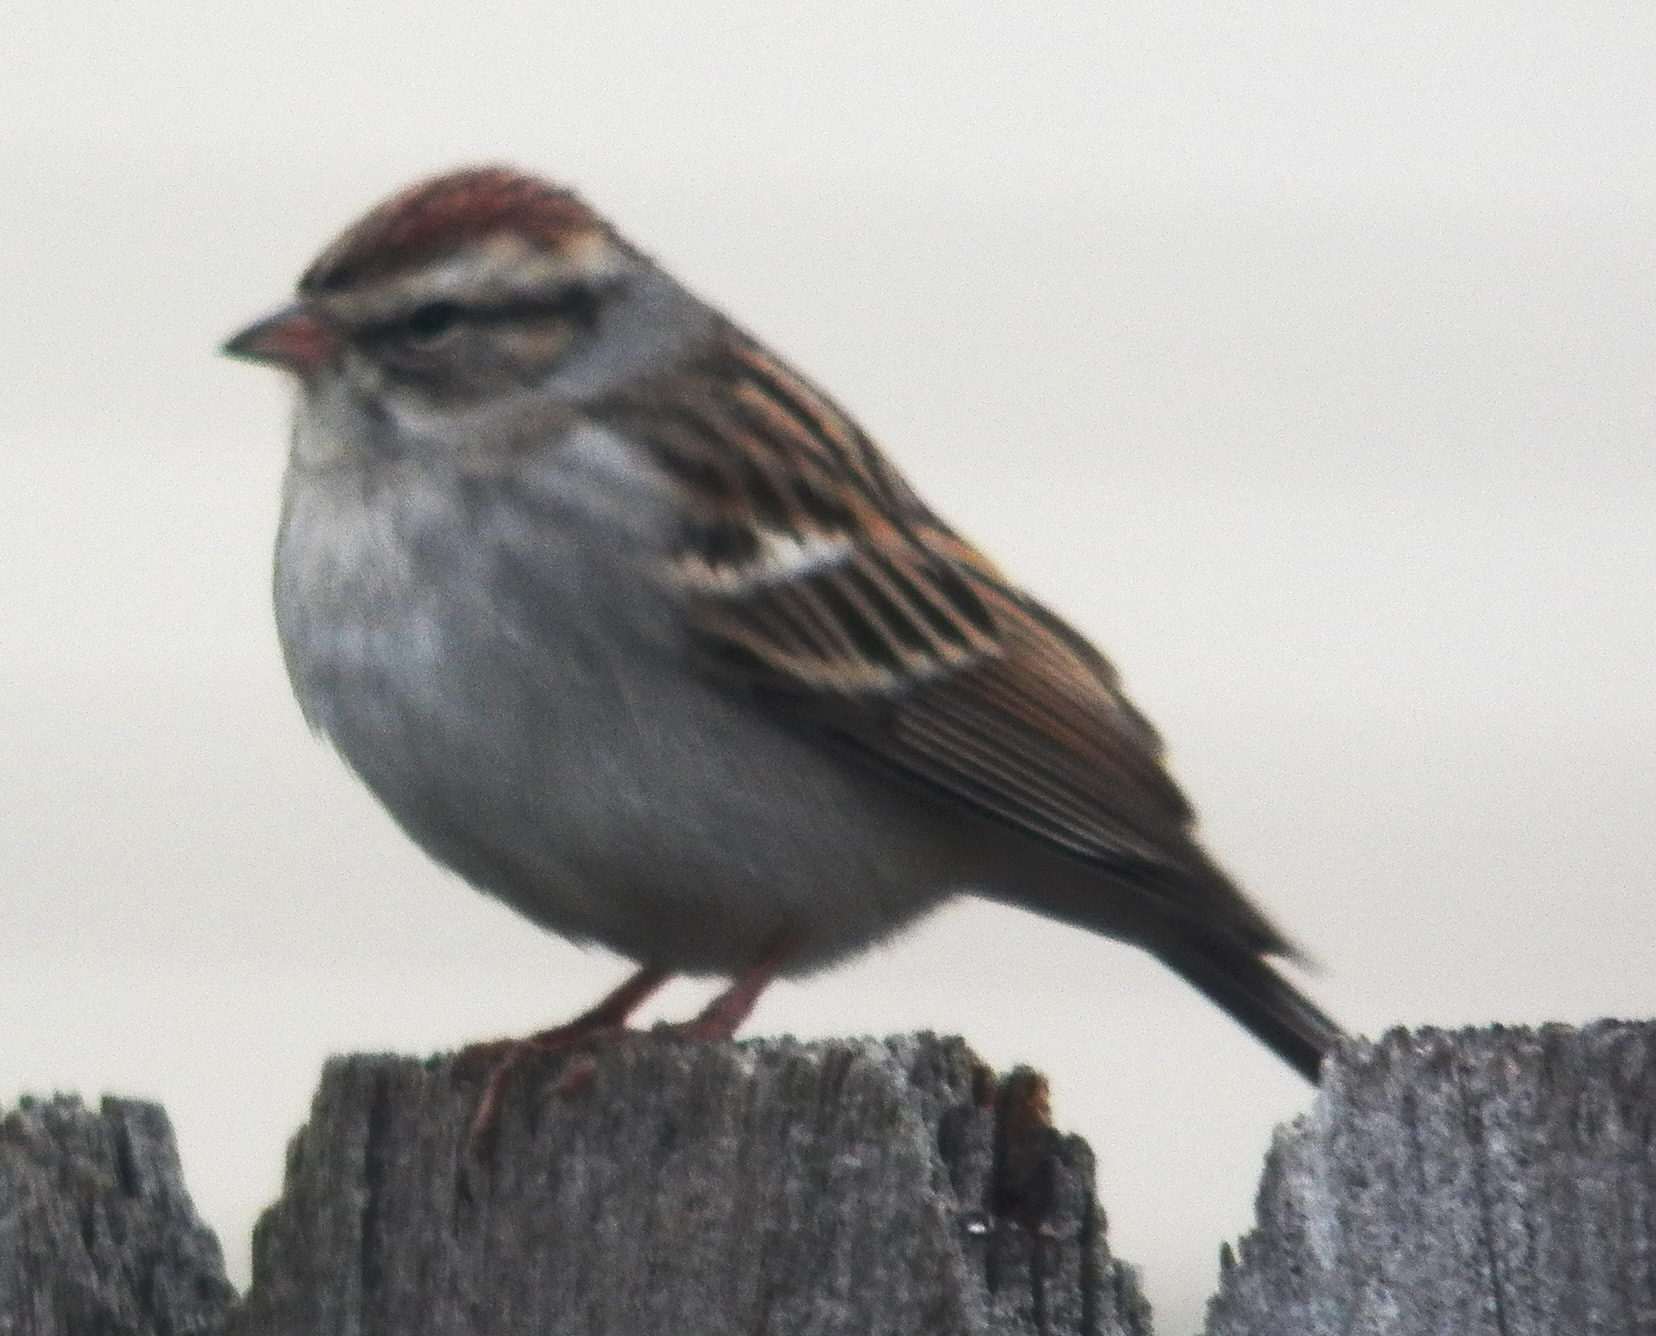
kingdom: Animalia
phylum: Chordata
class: Aves
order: Passeriformes
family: Passerellidae
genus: Spizella
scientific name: Spizella passerina
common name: Chipping sparrow
